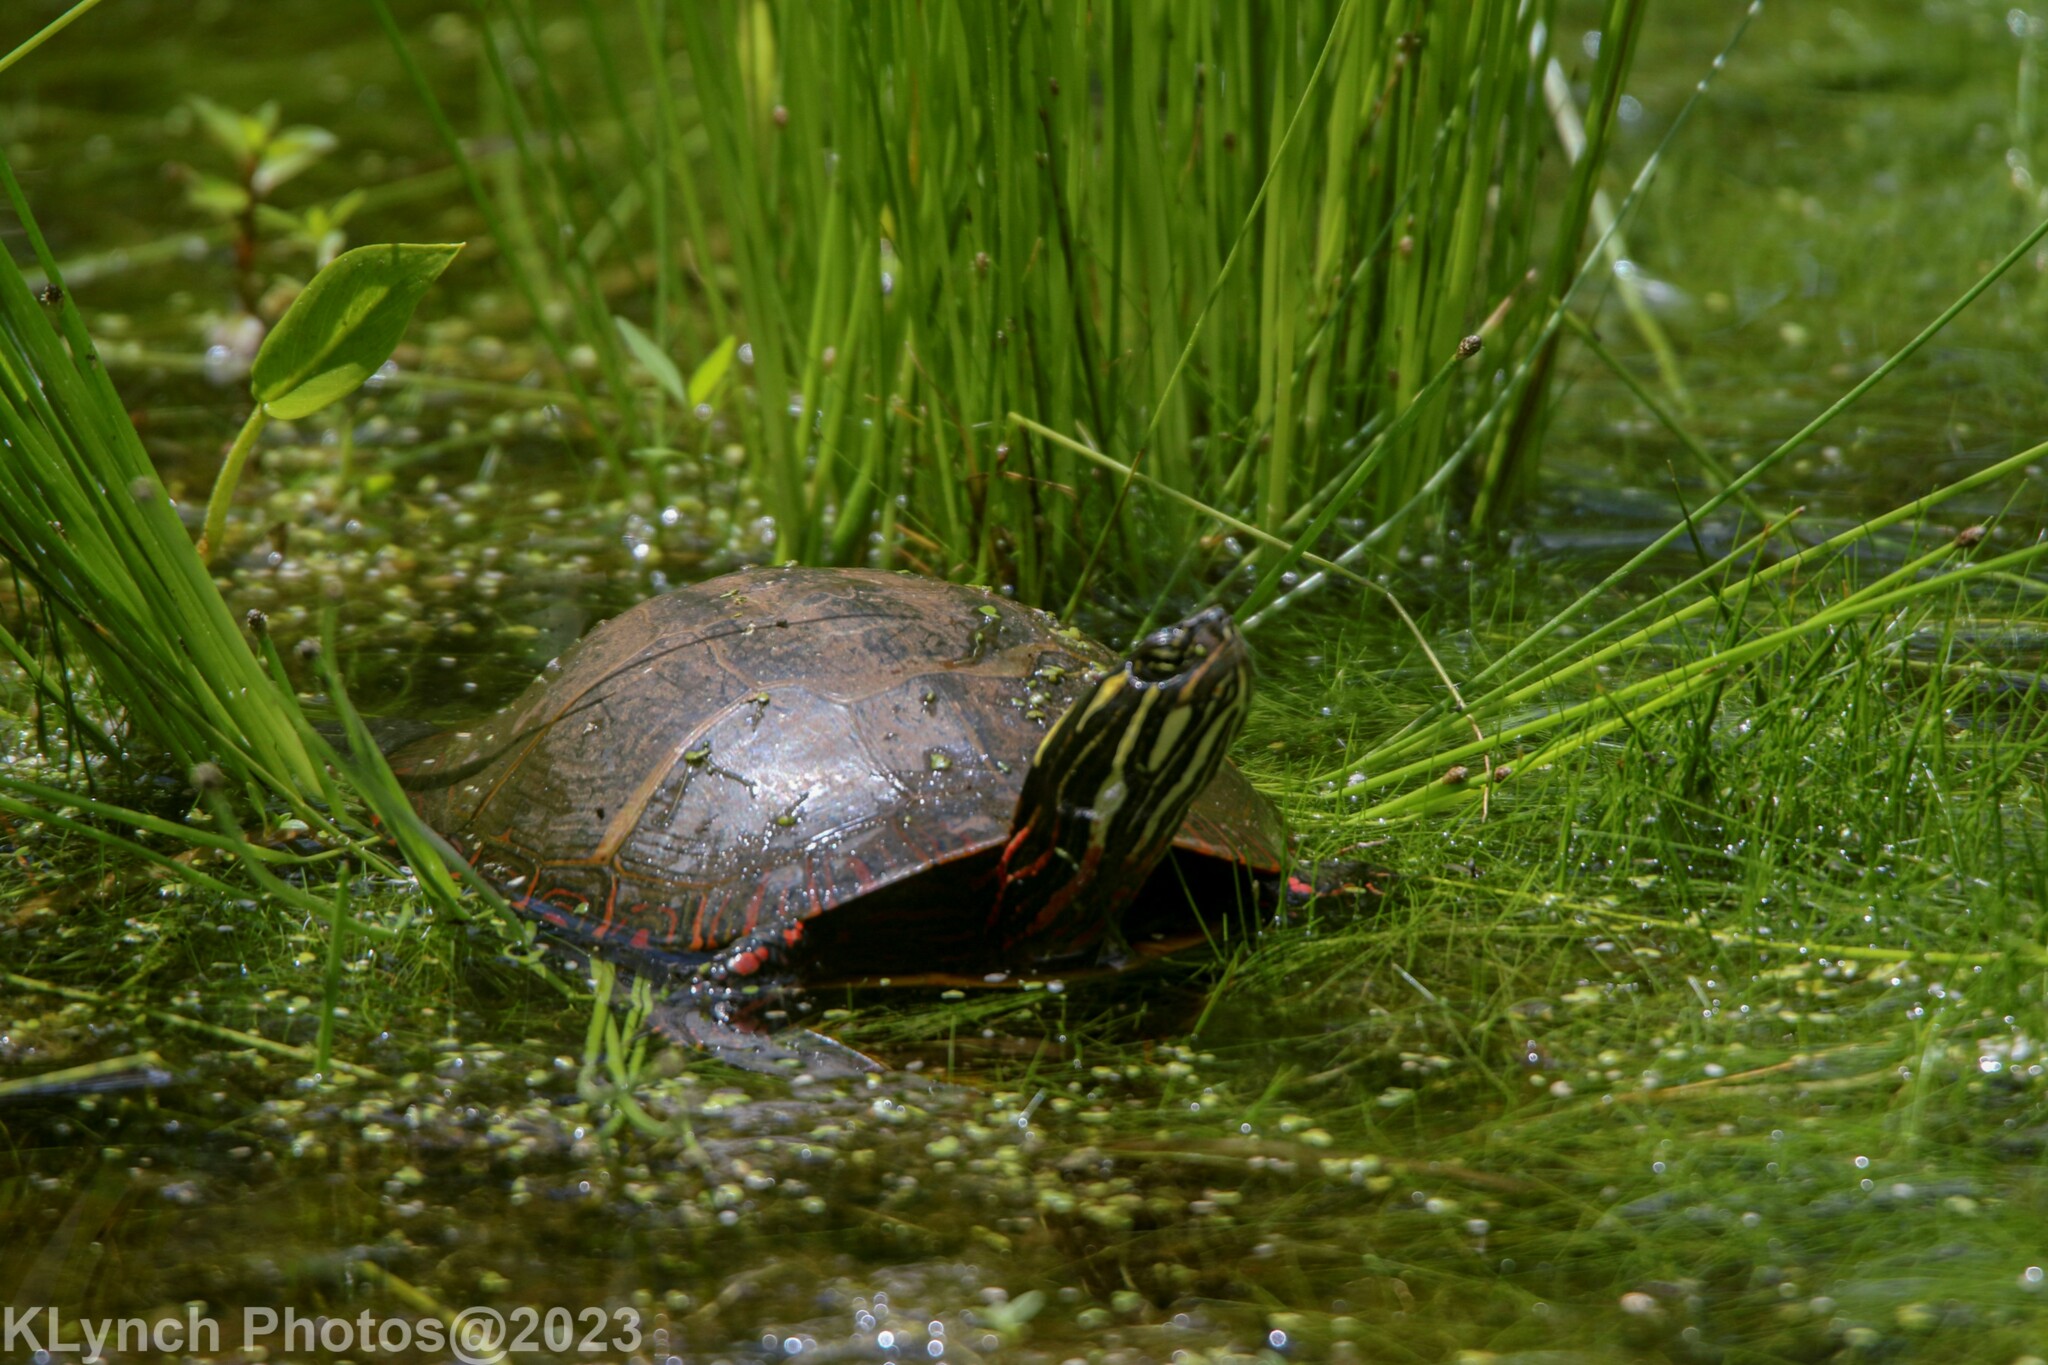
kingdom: Animalia
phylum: Chordata
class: Testudines
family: Emydidae
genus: Chrysemys
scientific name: Chrysemys picta
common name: Painted turtle
